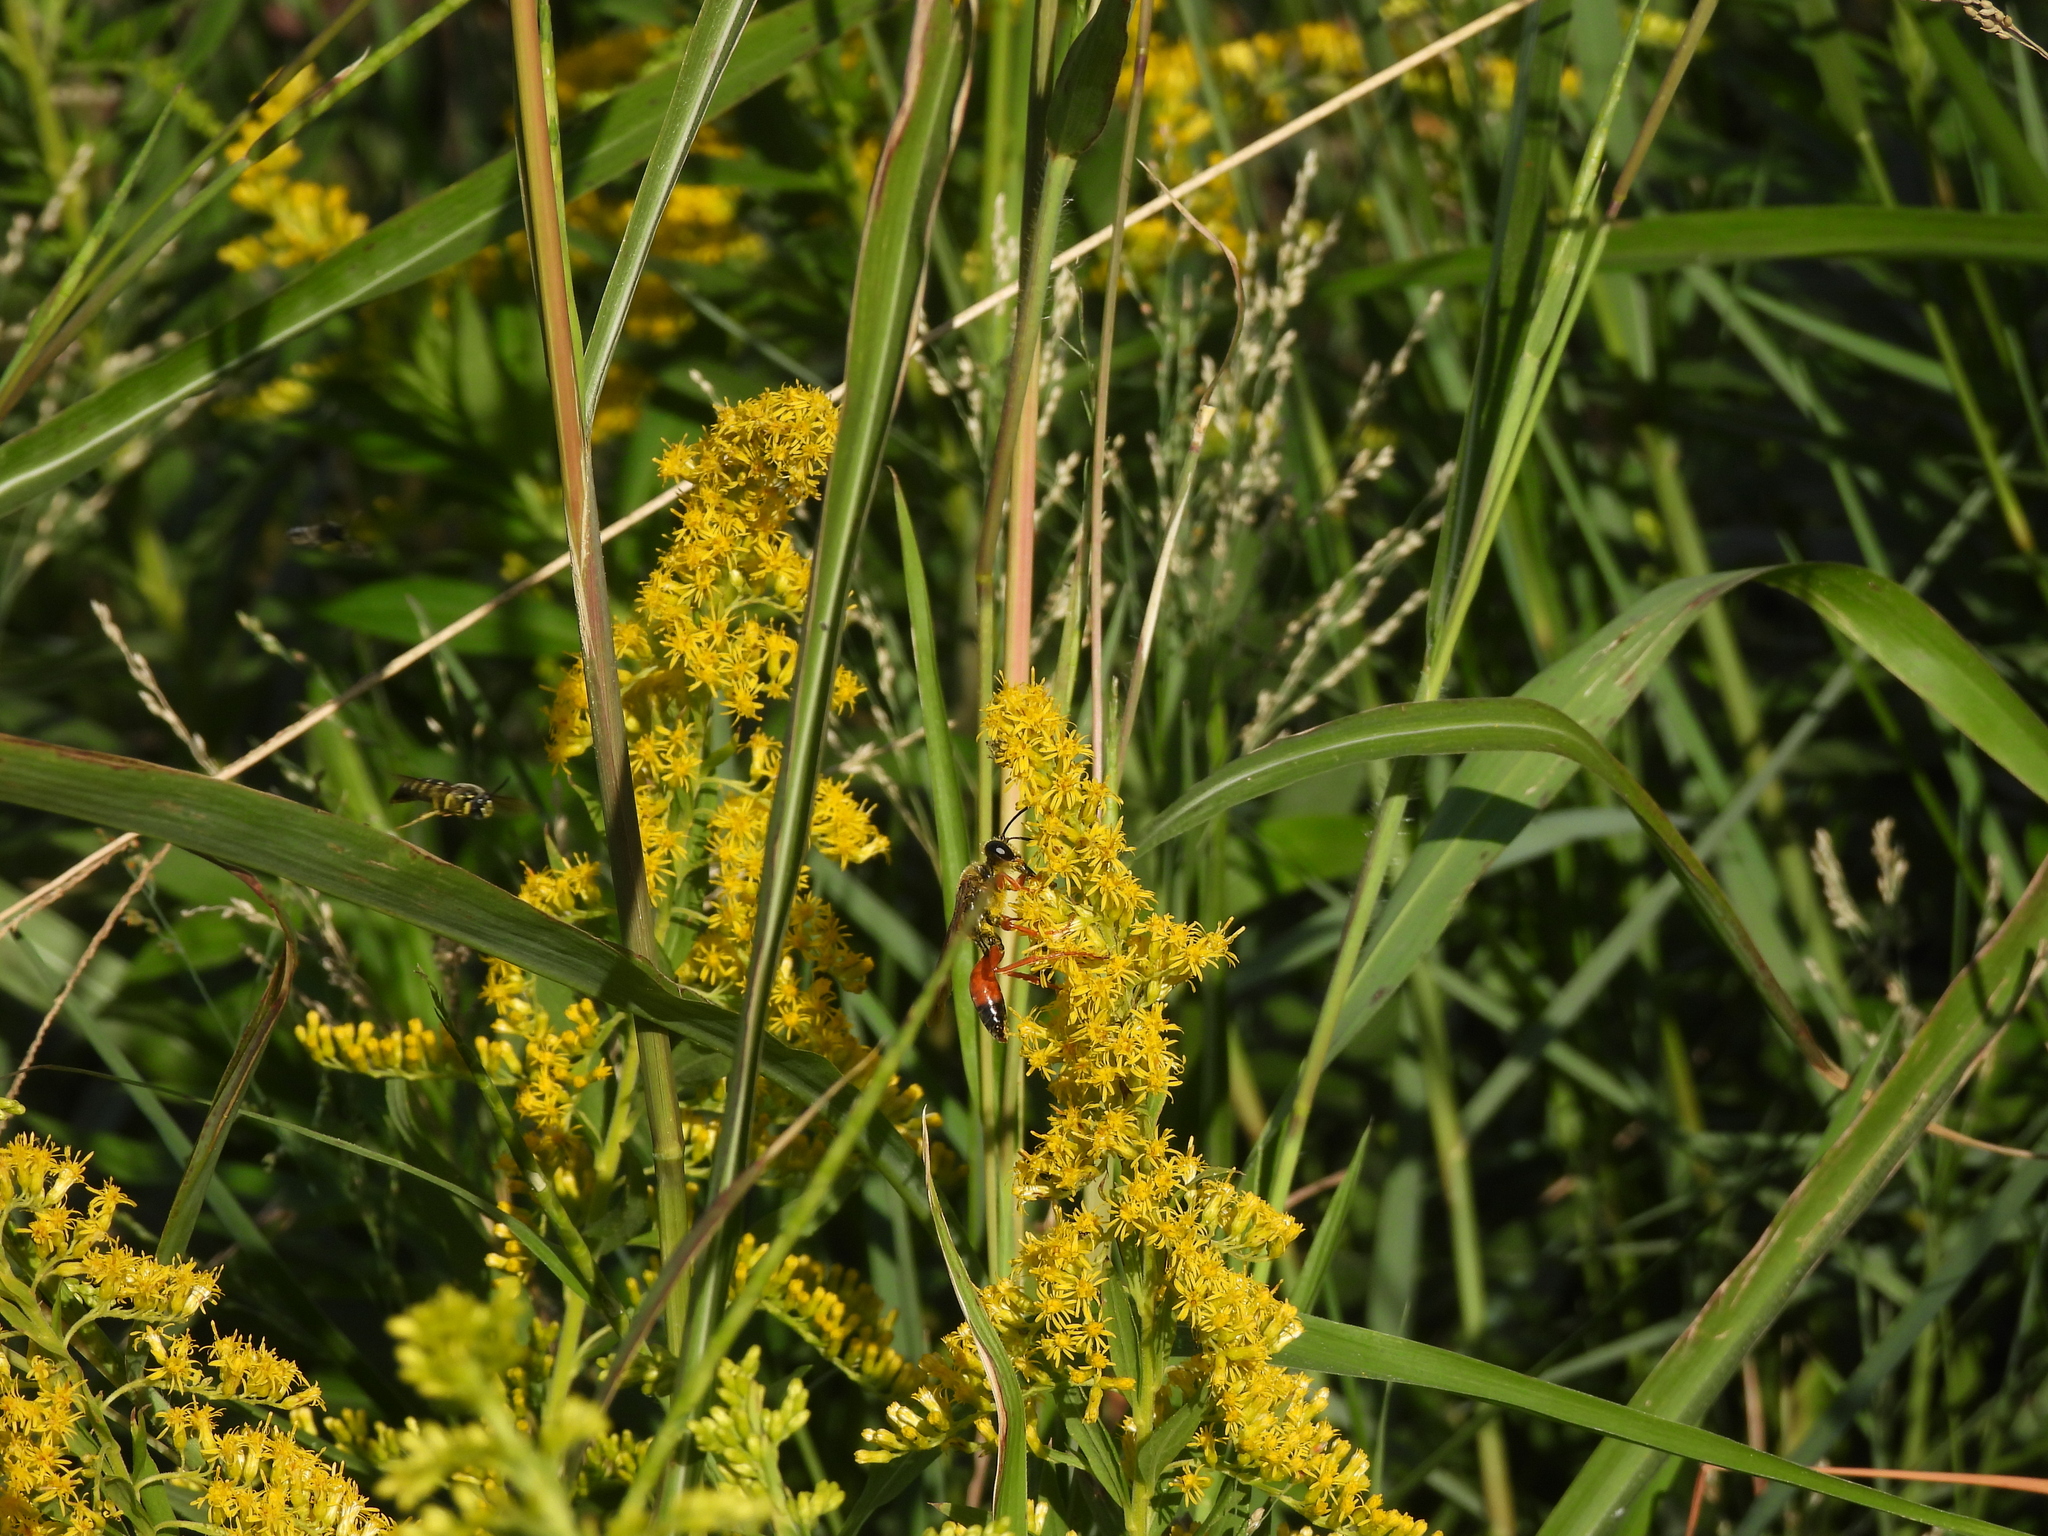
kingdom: Animalia
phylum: Arthropoda
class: Insecta
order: Hymenoptera
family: Crabronidae
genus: Bicyrtes
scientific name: Bicyrtes quadrifasciatus
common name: Four-banded stink bug hunter wasp
